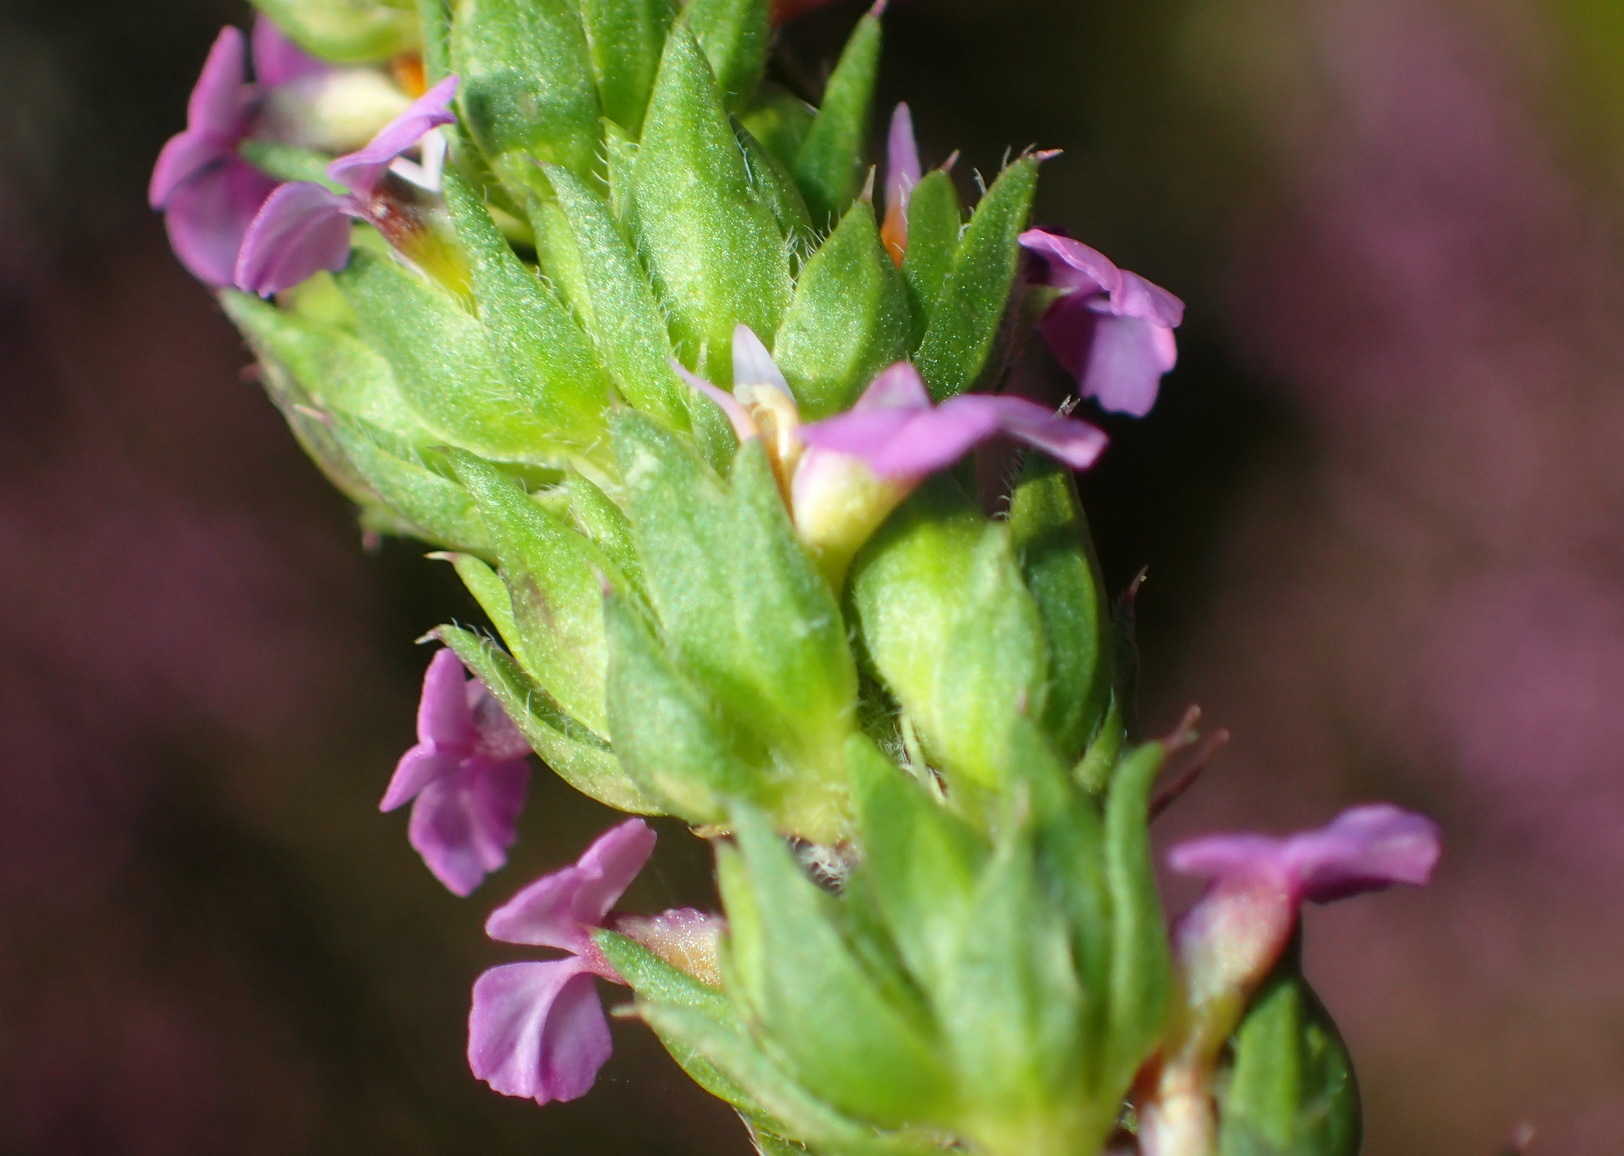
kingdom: Plantae
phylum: Tracheophyta
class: Magnoliopsida
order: Fabales
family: Polygalaceae
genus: Muraltia
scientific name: Muraltia alopecuroides
